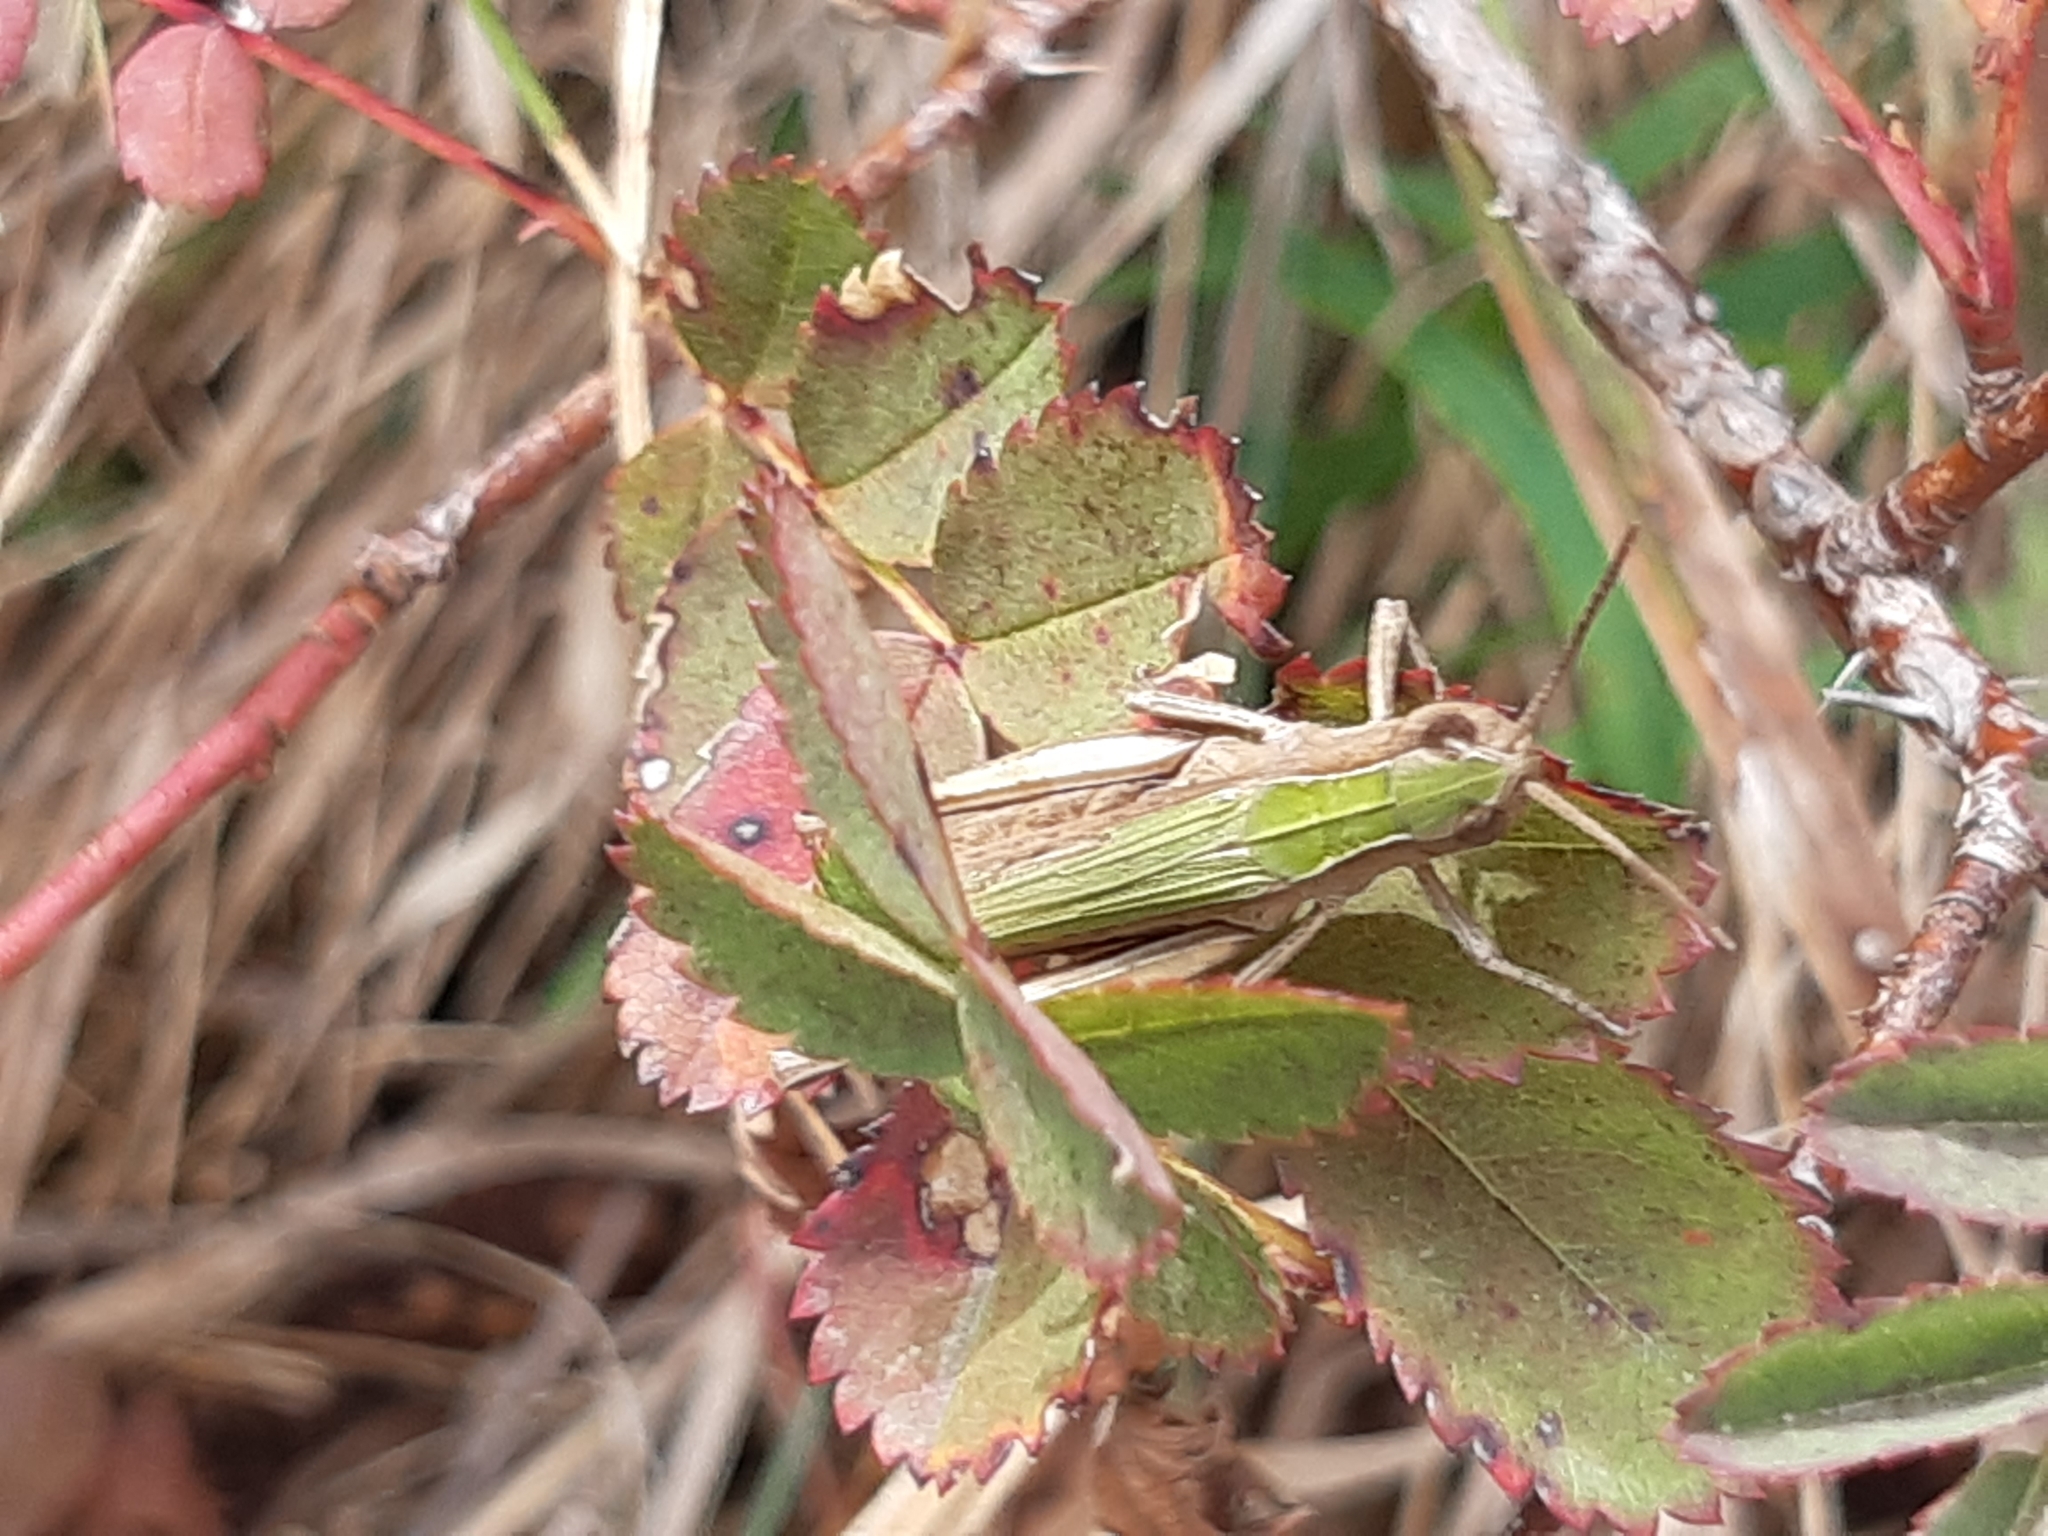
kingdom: Animalia
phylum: Arthropoda
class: Insecta
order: Orthoptera
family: Acrididae
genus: Chorthippus
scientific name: Chorthippus dorsatus
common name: Steppe grasshopper
